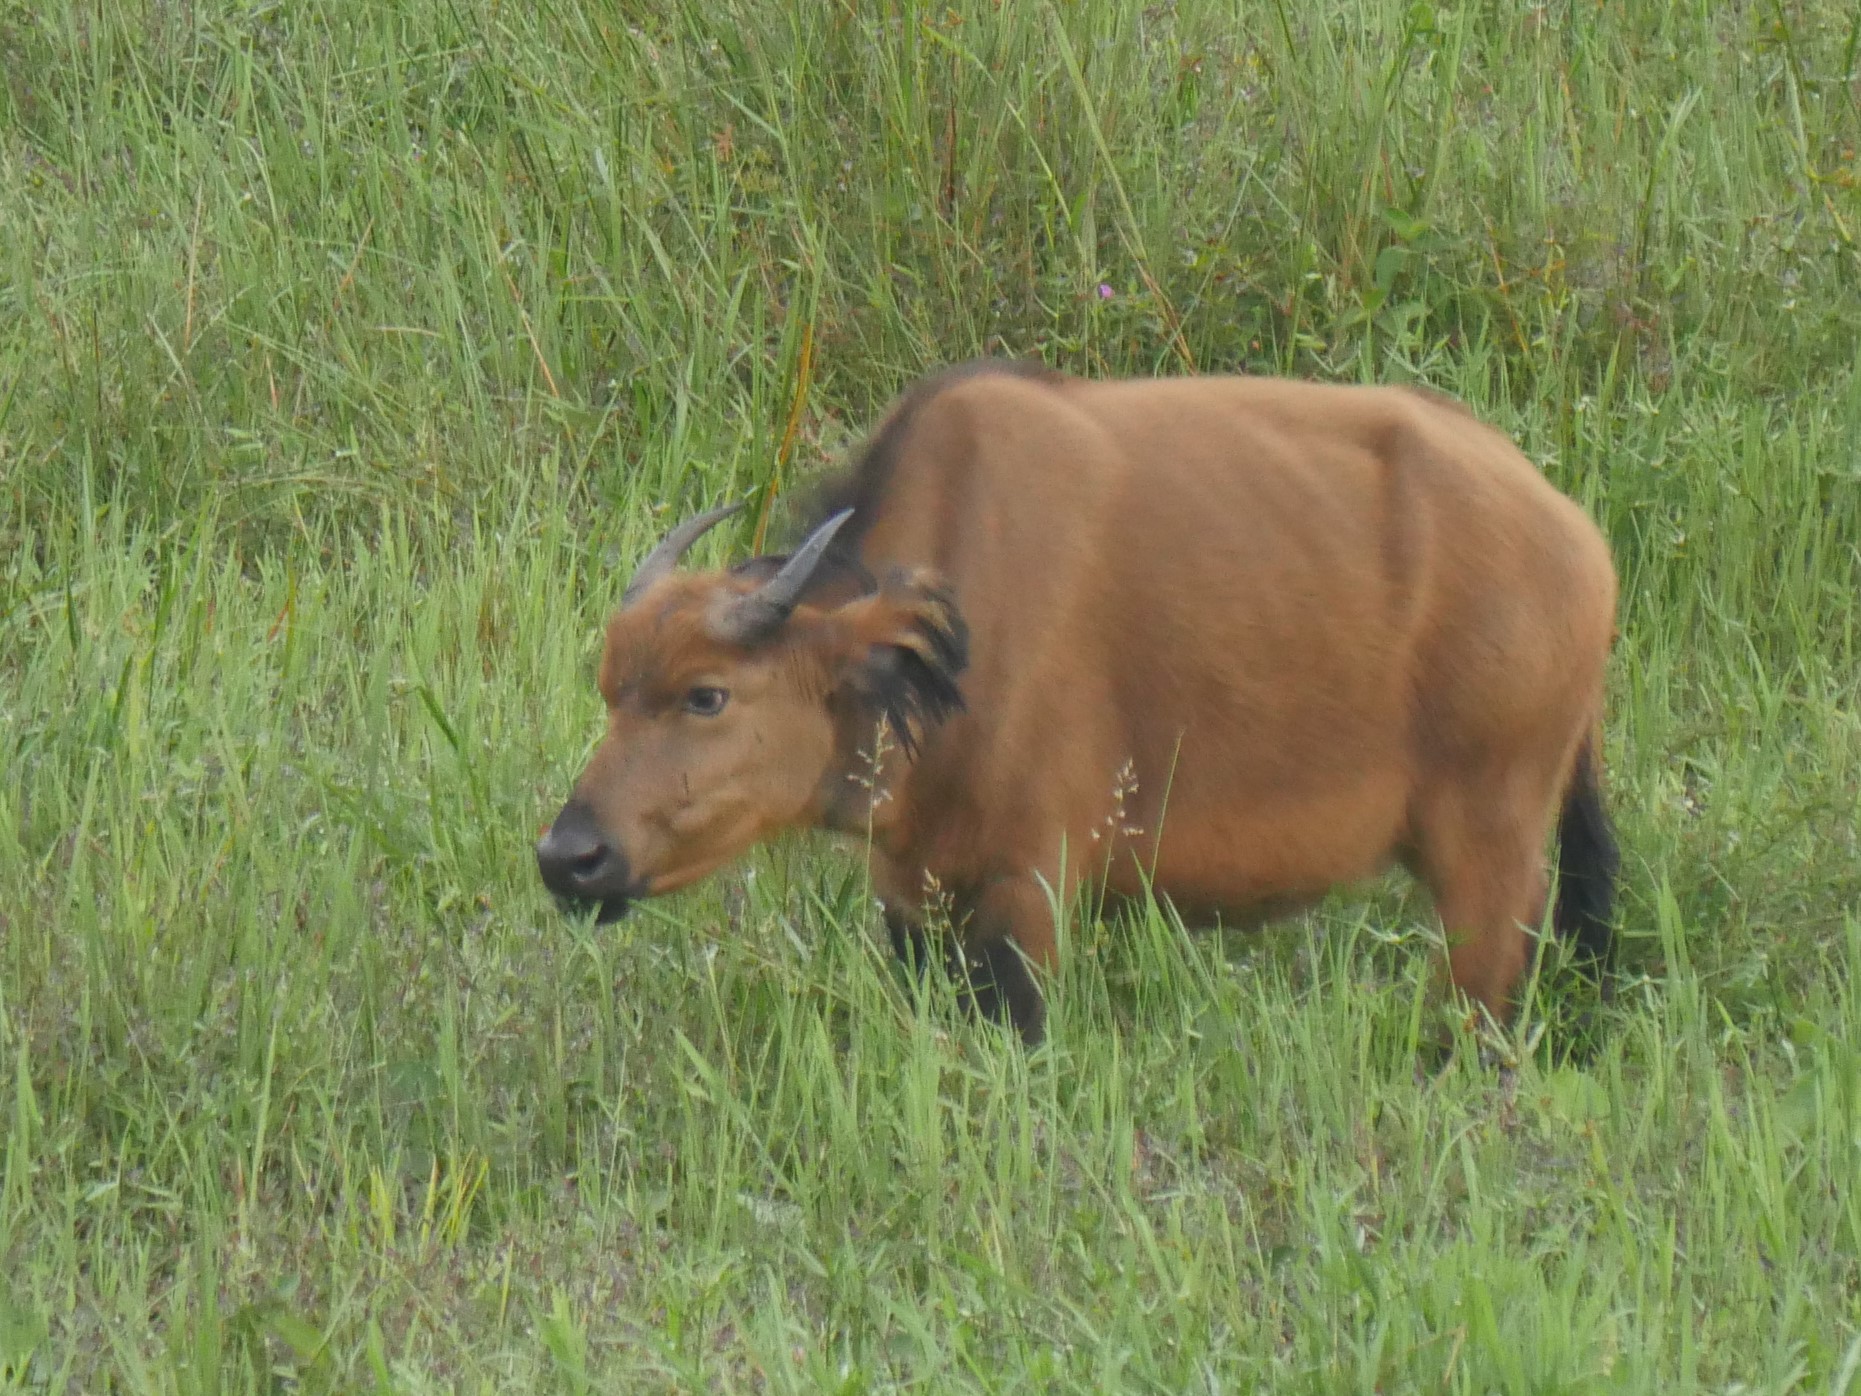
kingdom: Animalia
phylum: Chordata
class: Mammalia
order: Artiodactyla
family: Bovidae
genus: Syncerus
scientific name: Syncerus caffer
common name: African buffalo
